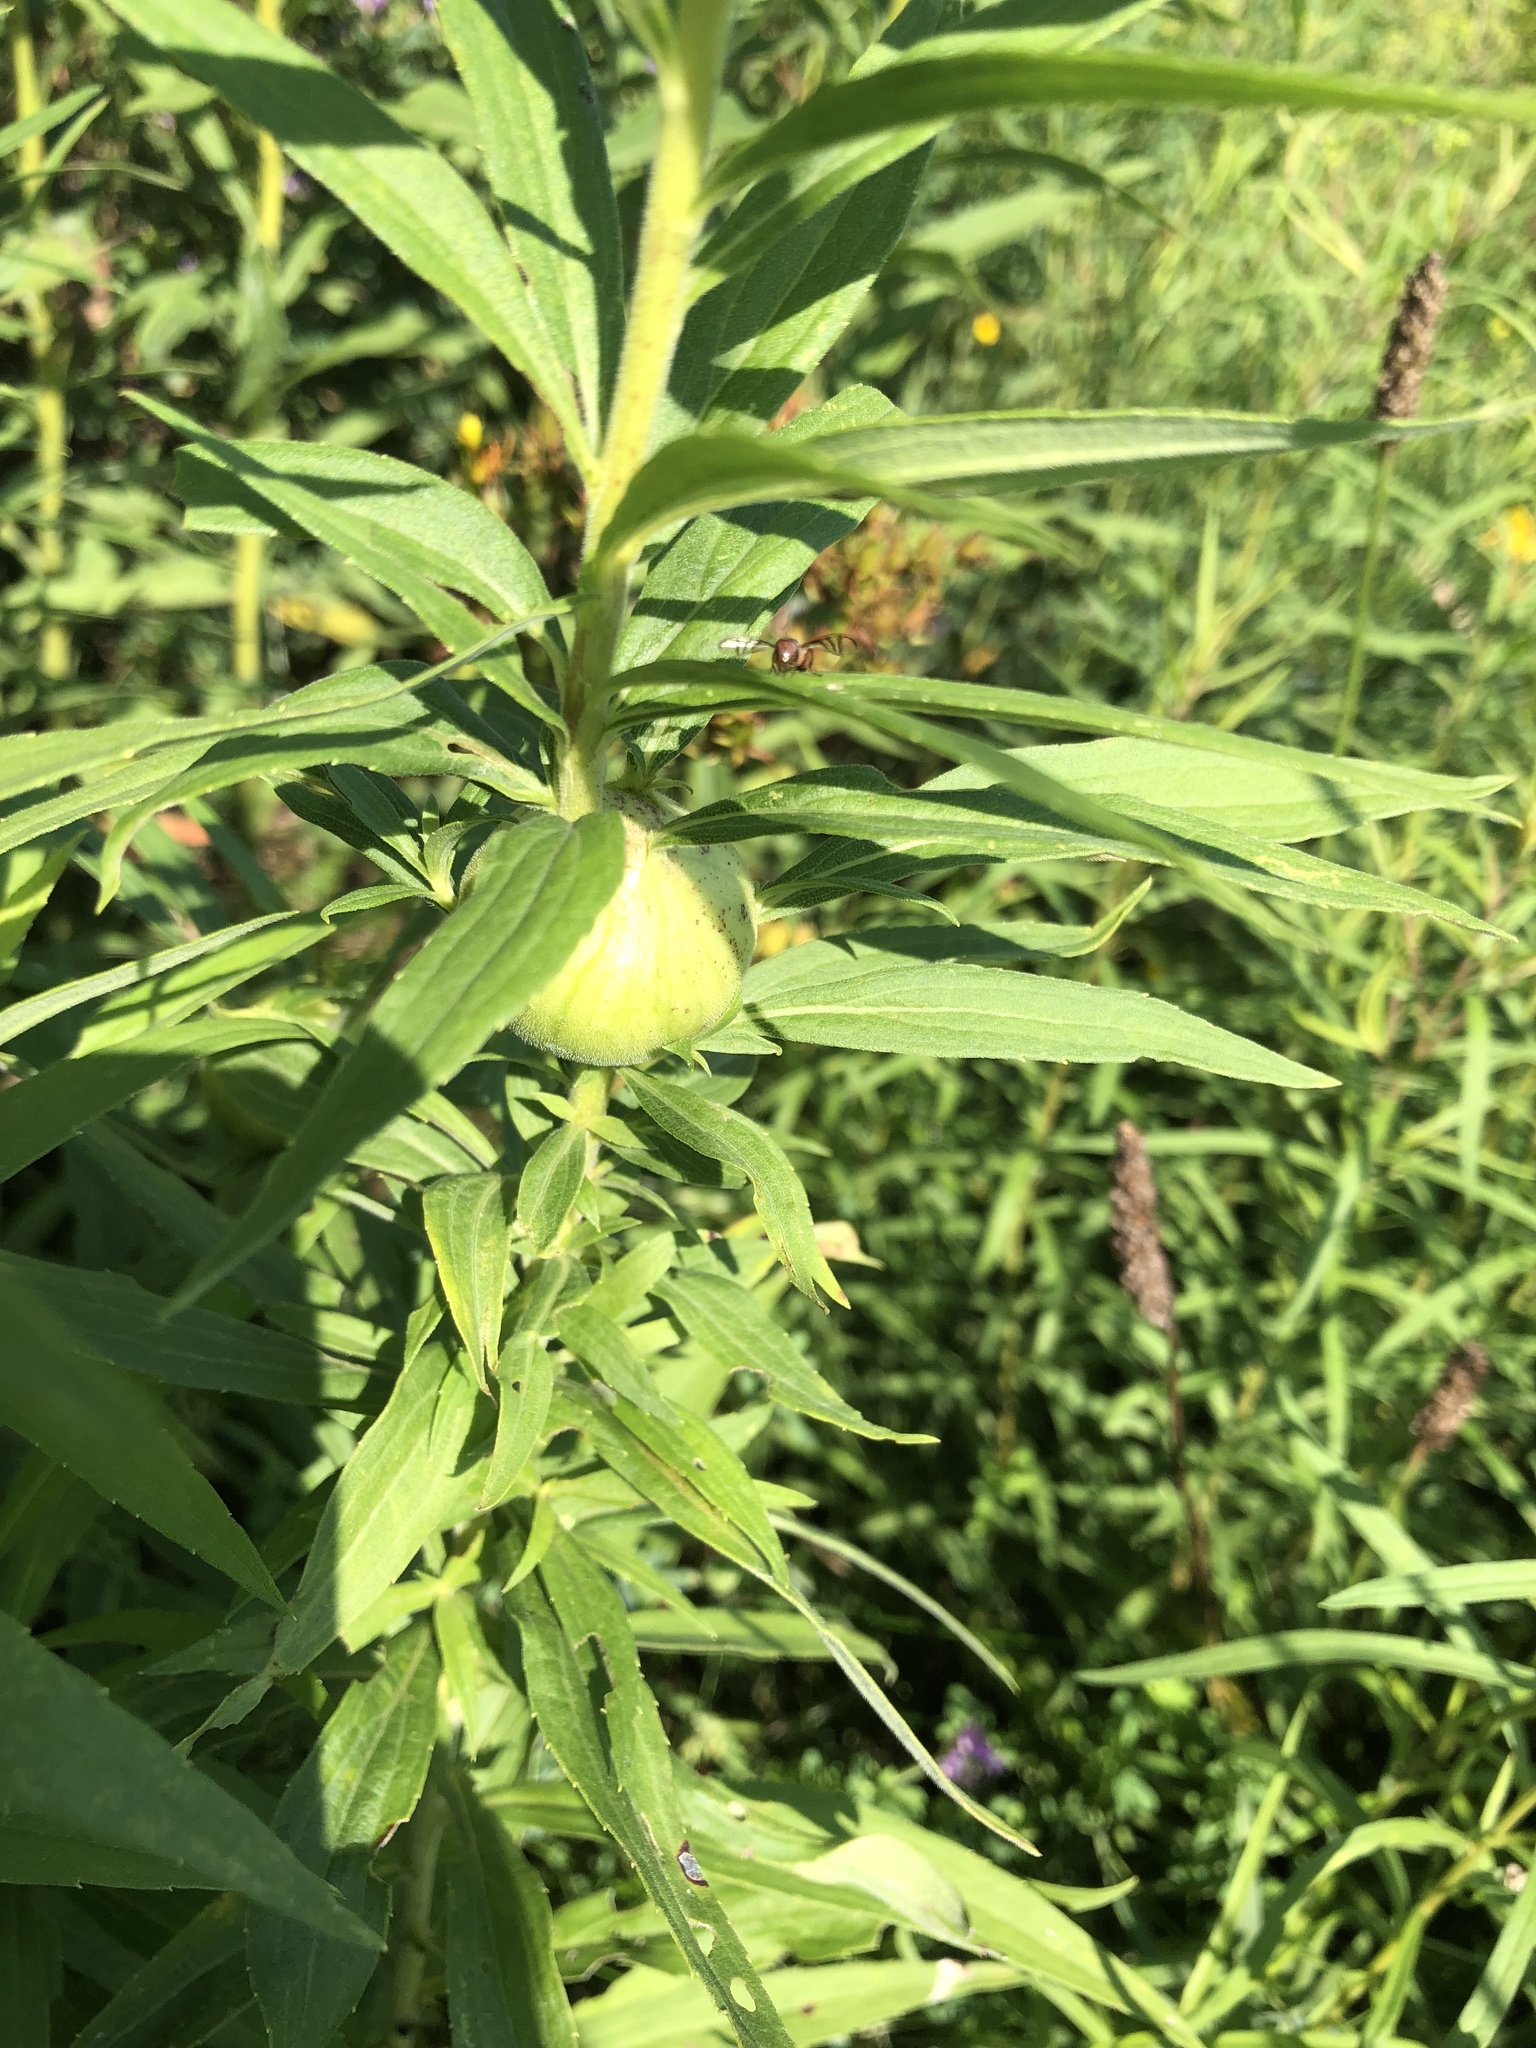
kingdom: Animalia
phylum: Arthropoda
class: Insecta
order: Diptera
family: Tephritidae
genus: Eurosta
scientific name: Eurosta solidaginis
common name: Goldenrod gall fly
